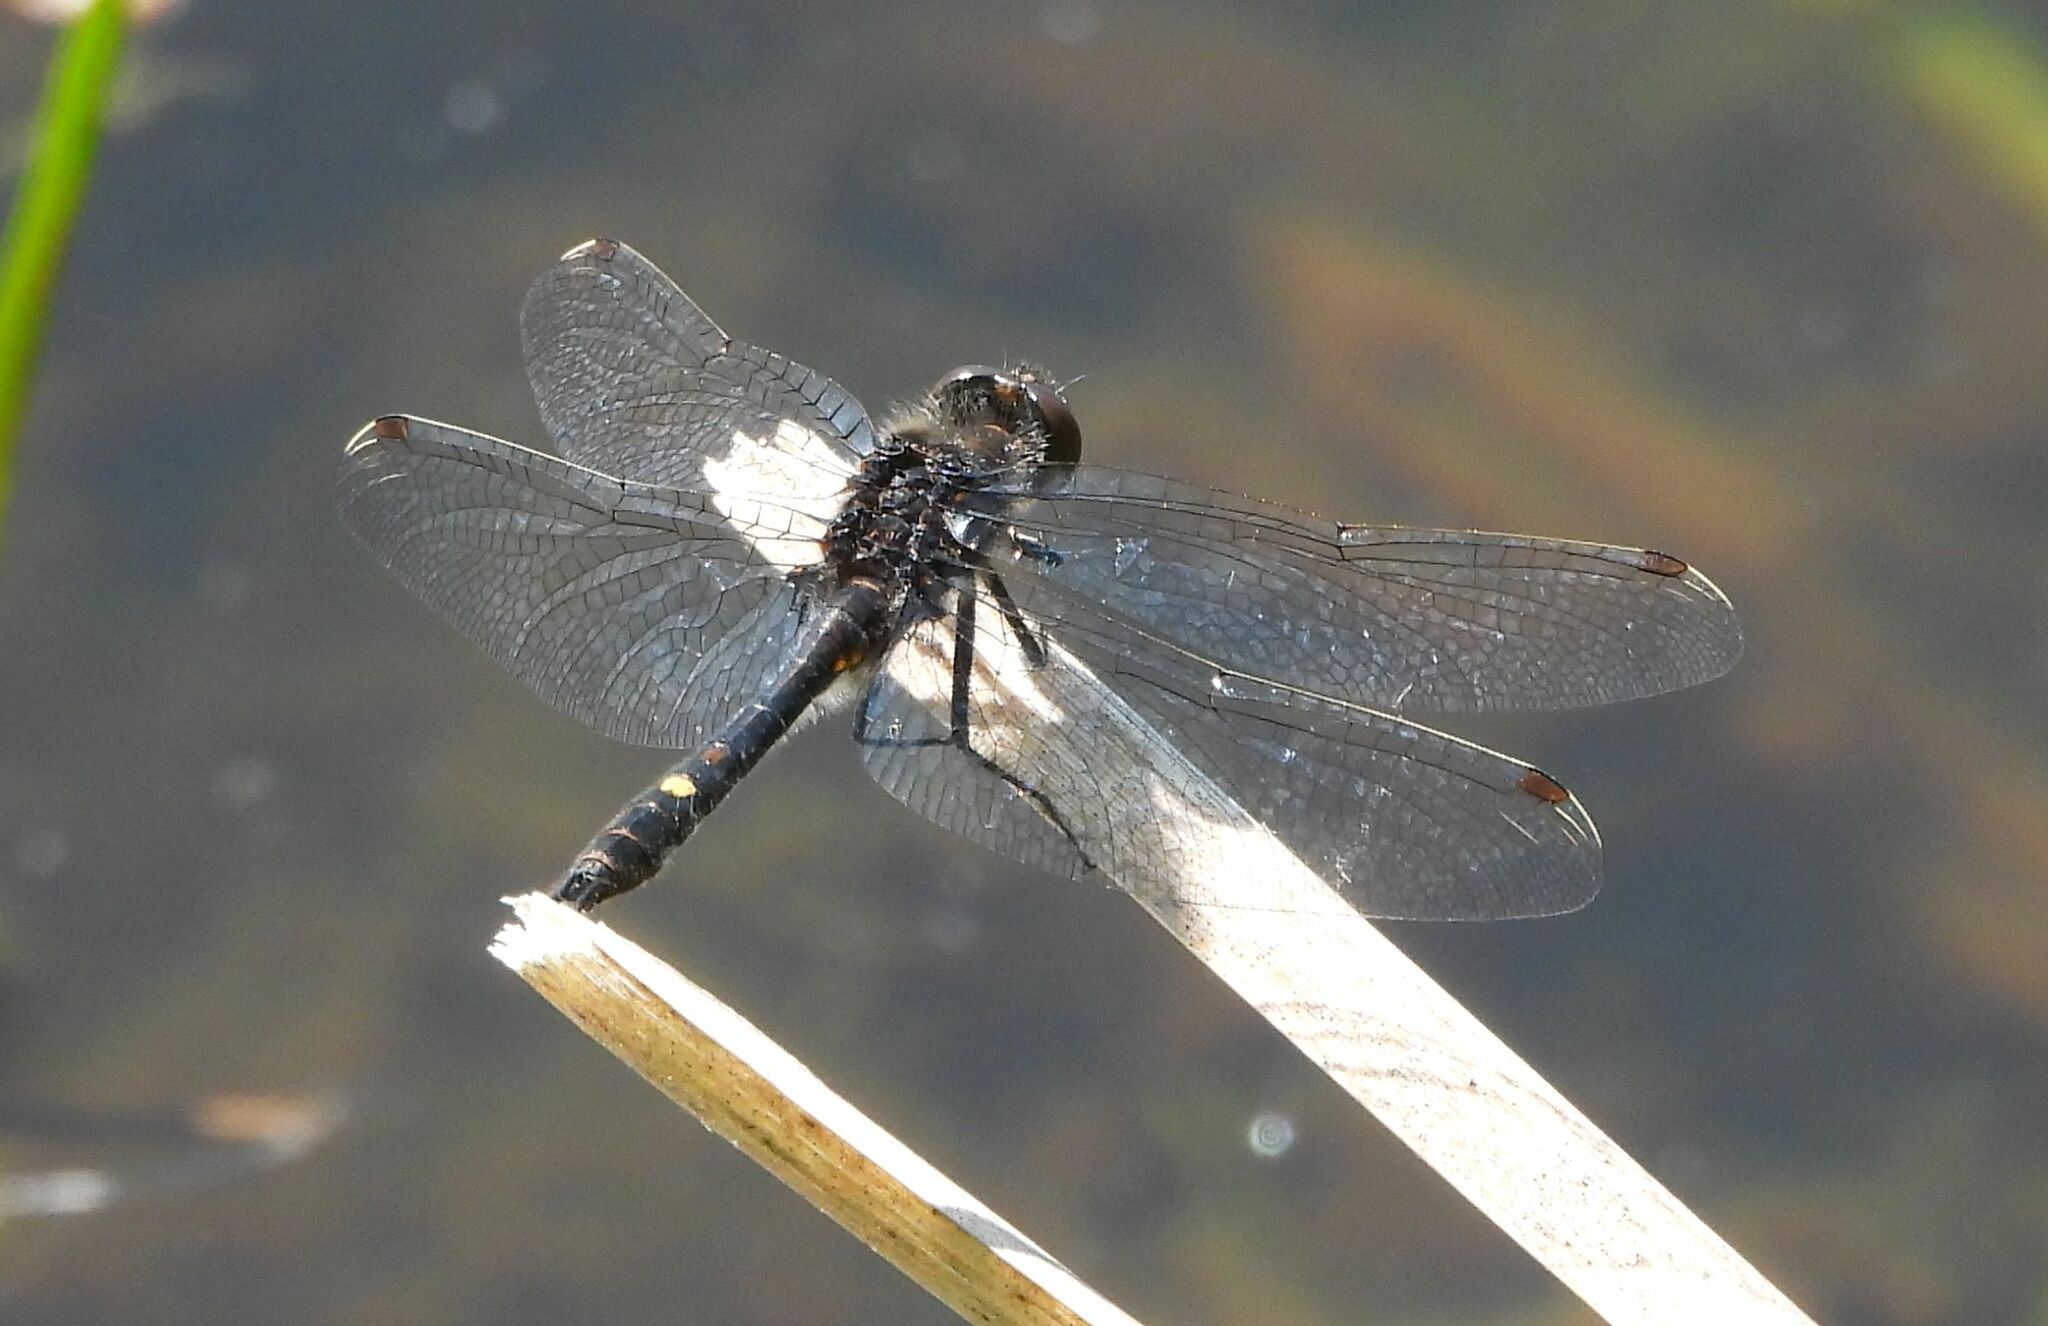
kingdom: Animalia
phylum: Arthropoda
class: Insecta
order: Odonata
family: Libellulidae
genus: Leucorrhinia
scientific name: Leucorrhinia intacta
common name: Dot-tailed whiteface
